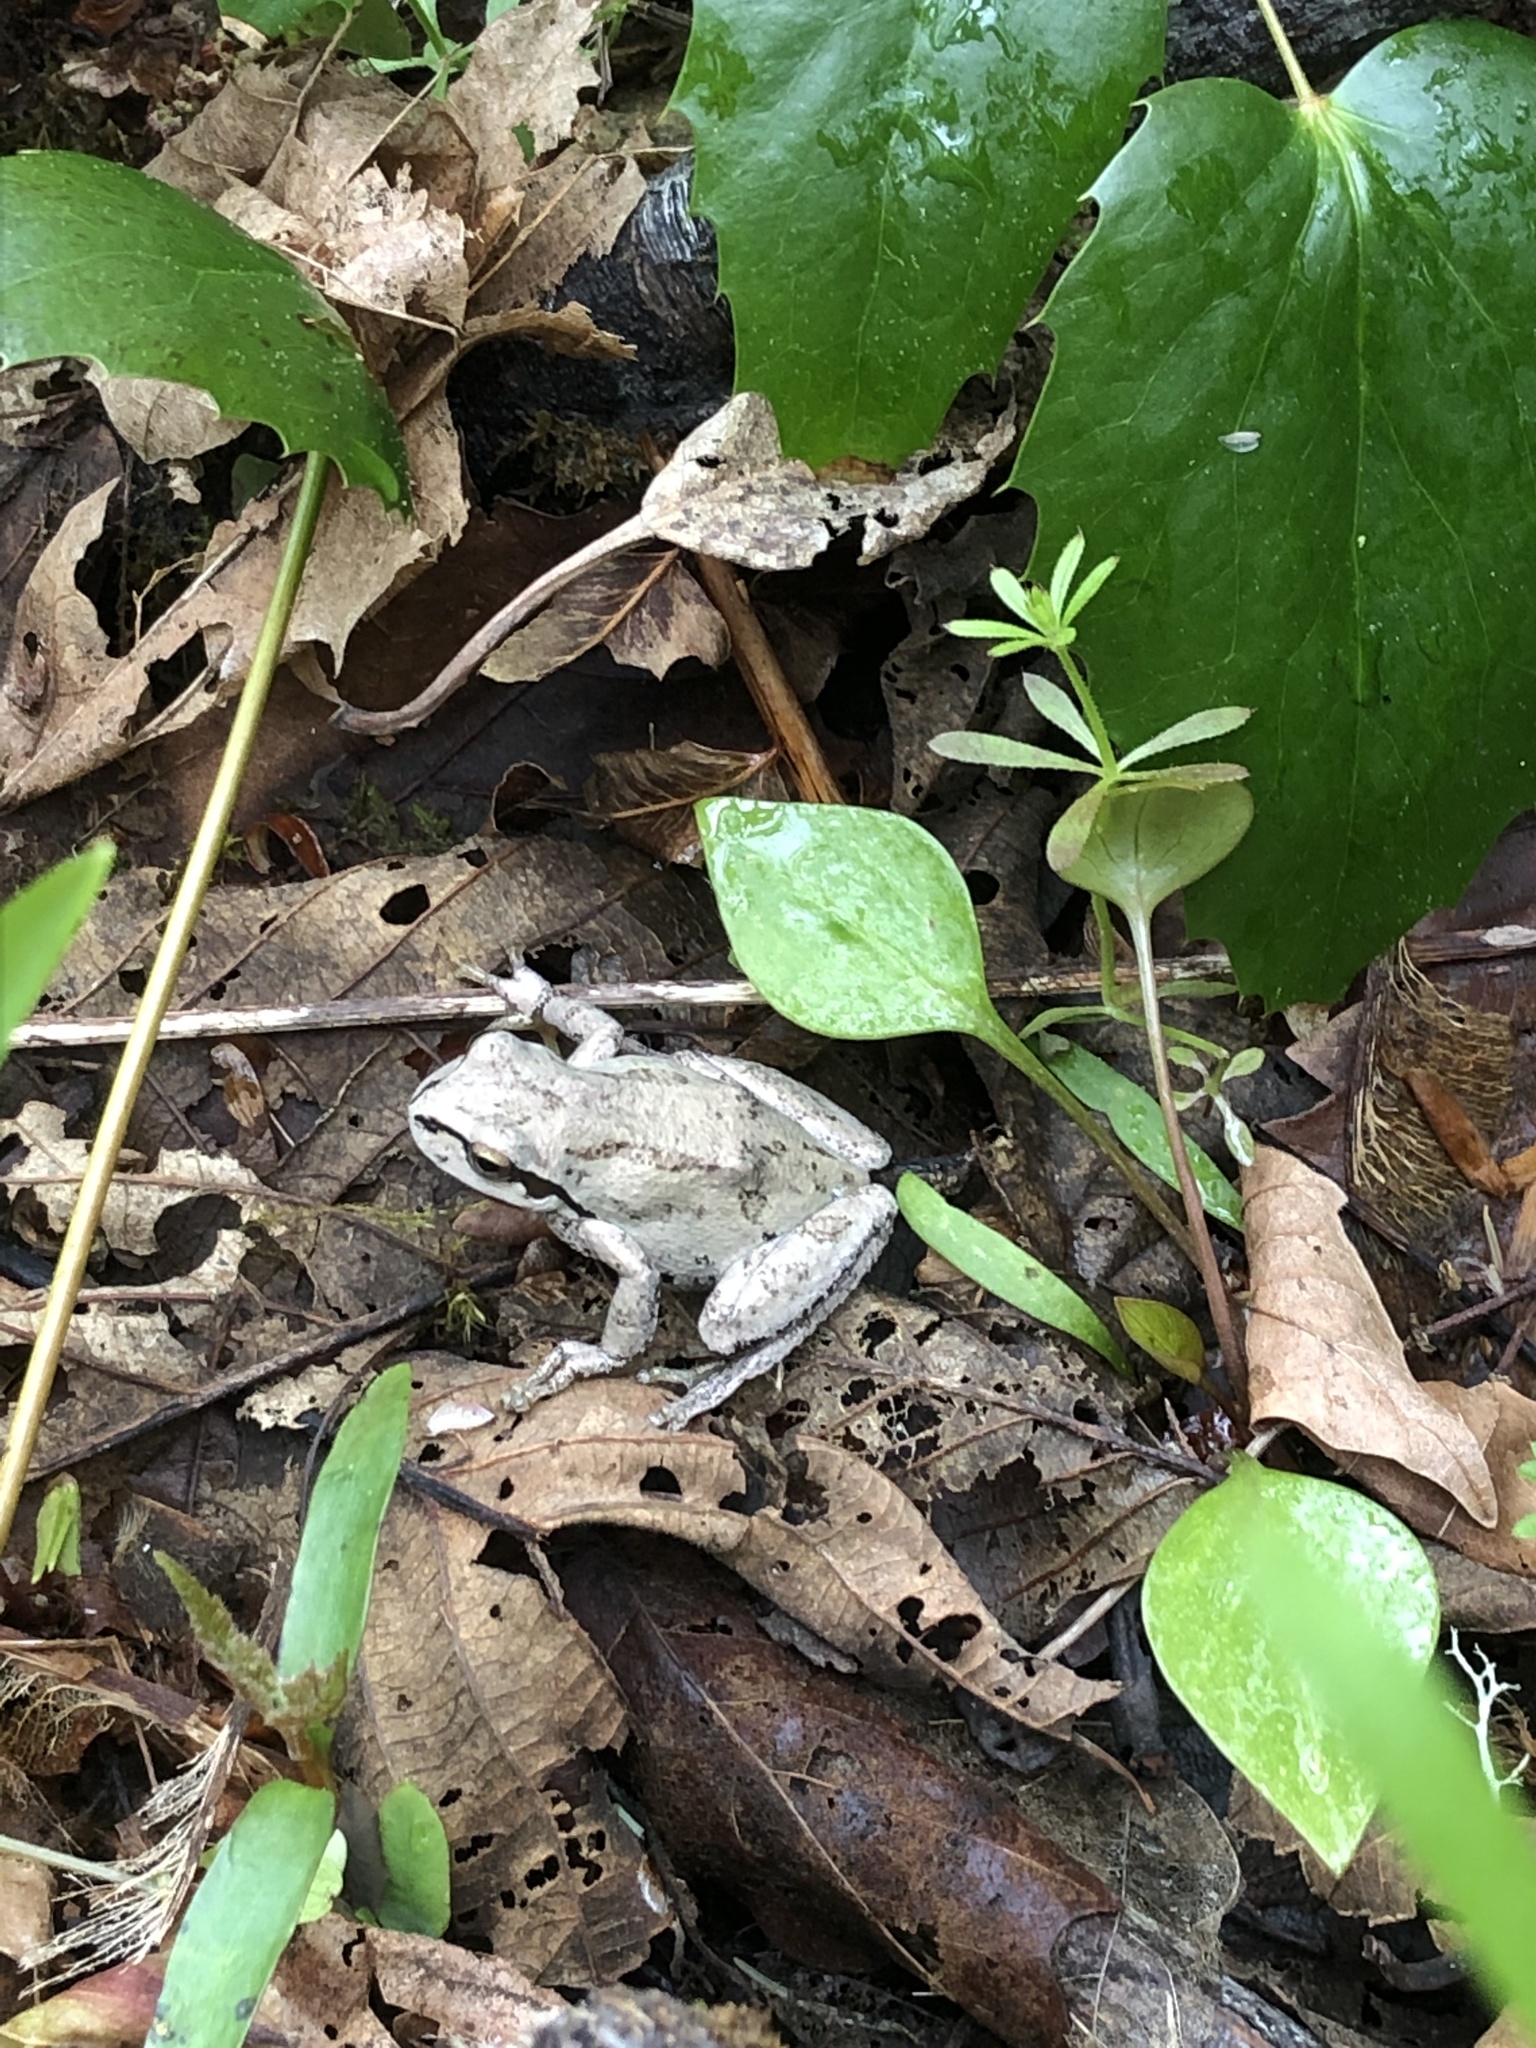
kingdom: Animalia
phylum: Chordata
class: Amphibia
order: Anura
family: Hylidae
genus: Pseudacris
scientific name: Pseudacris regilla
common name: Pacific chorus frog
